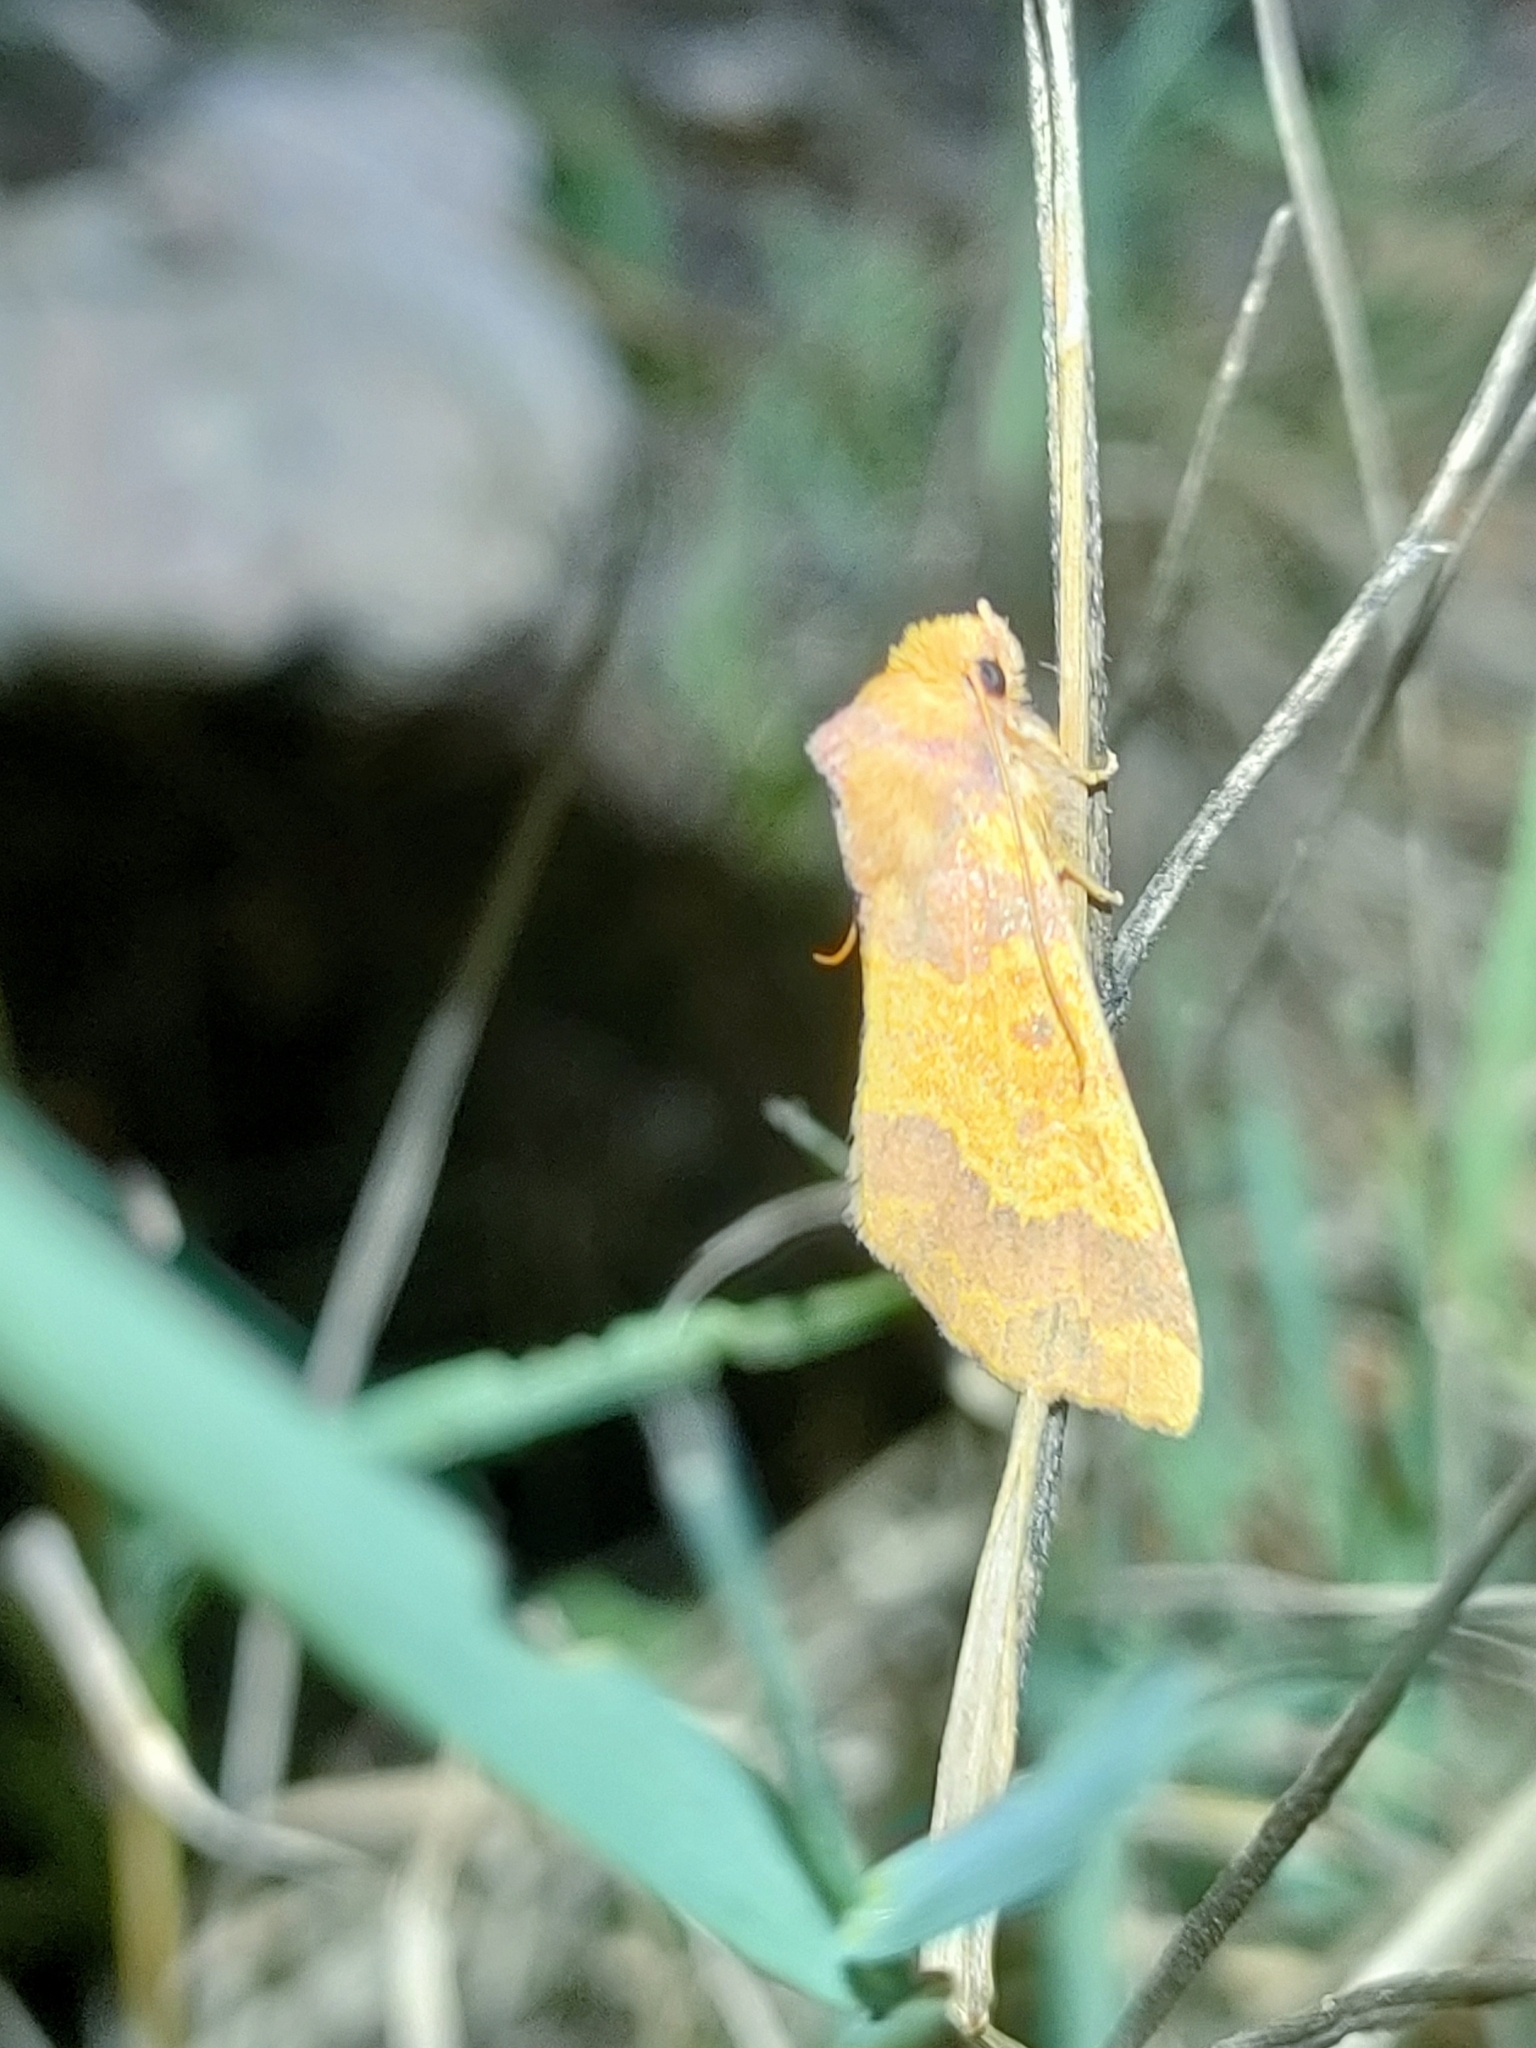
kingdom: Animalia
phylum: Arthropoda
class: Insecta
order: Lepidoptera
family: Noctuidae
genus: Tiliacea
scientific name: Tiliacea aurago
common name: Barred sallow
